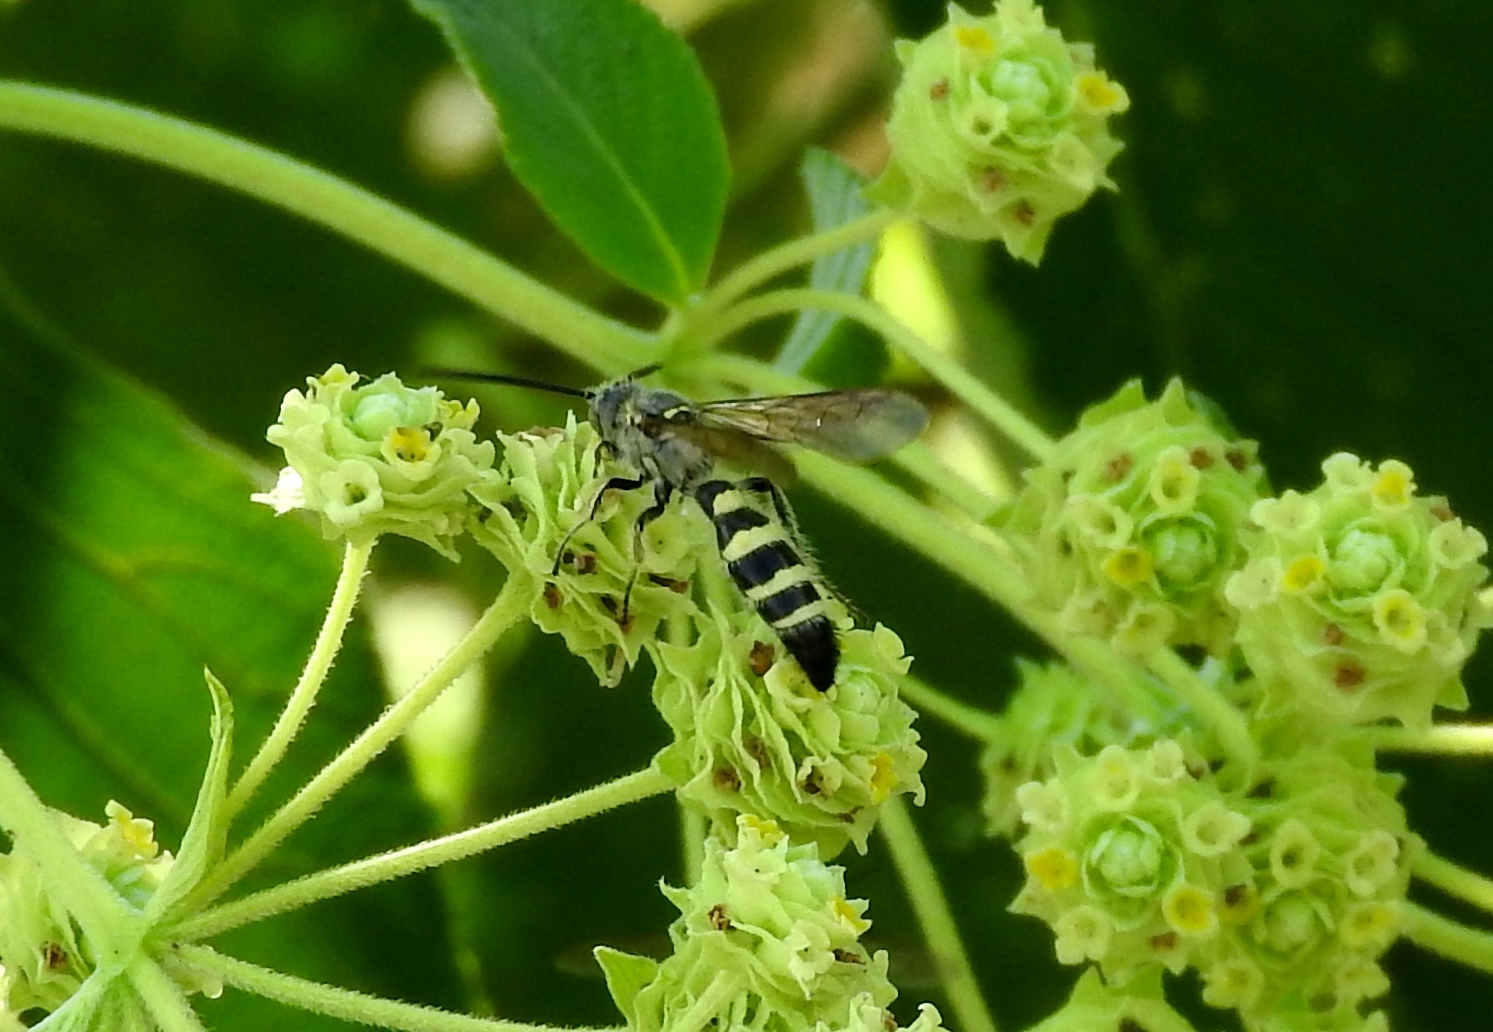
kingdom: Animalia
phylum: Arthropoda
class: Insecta
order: Hymenoptera
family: Scoliidae
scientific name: Scoliidae
